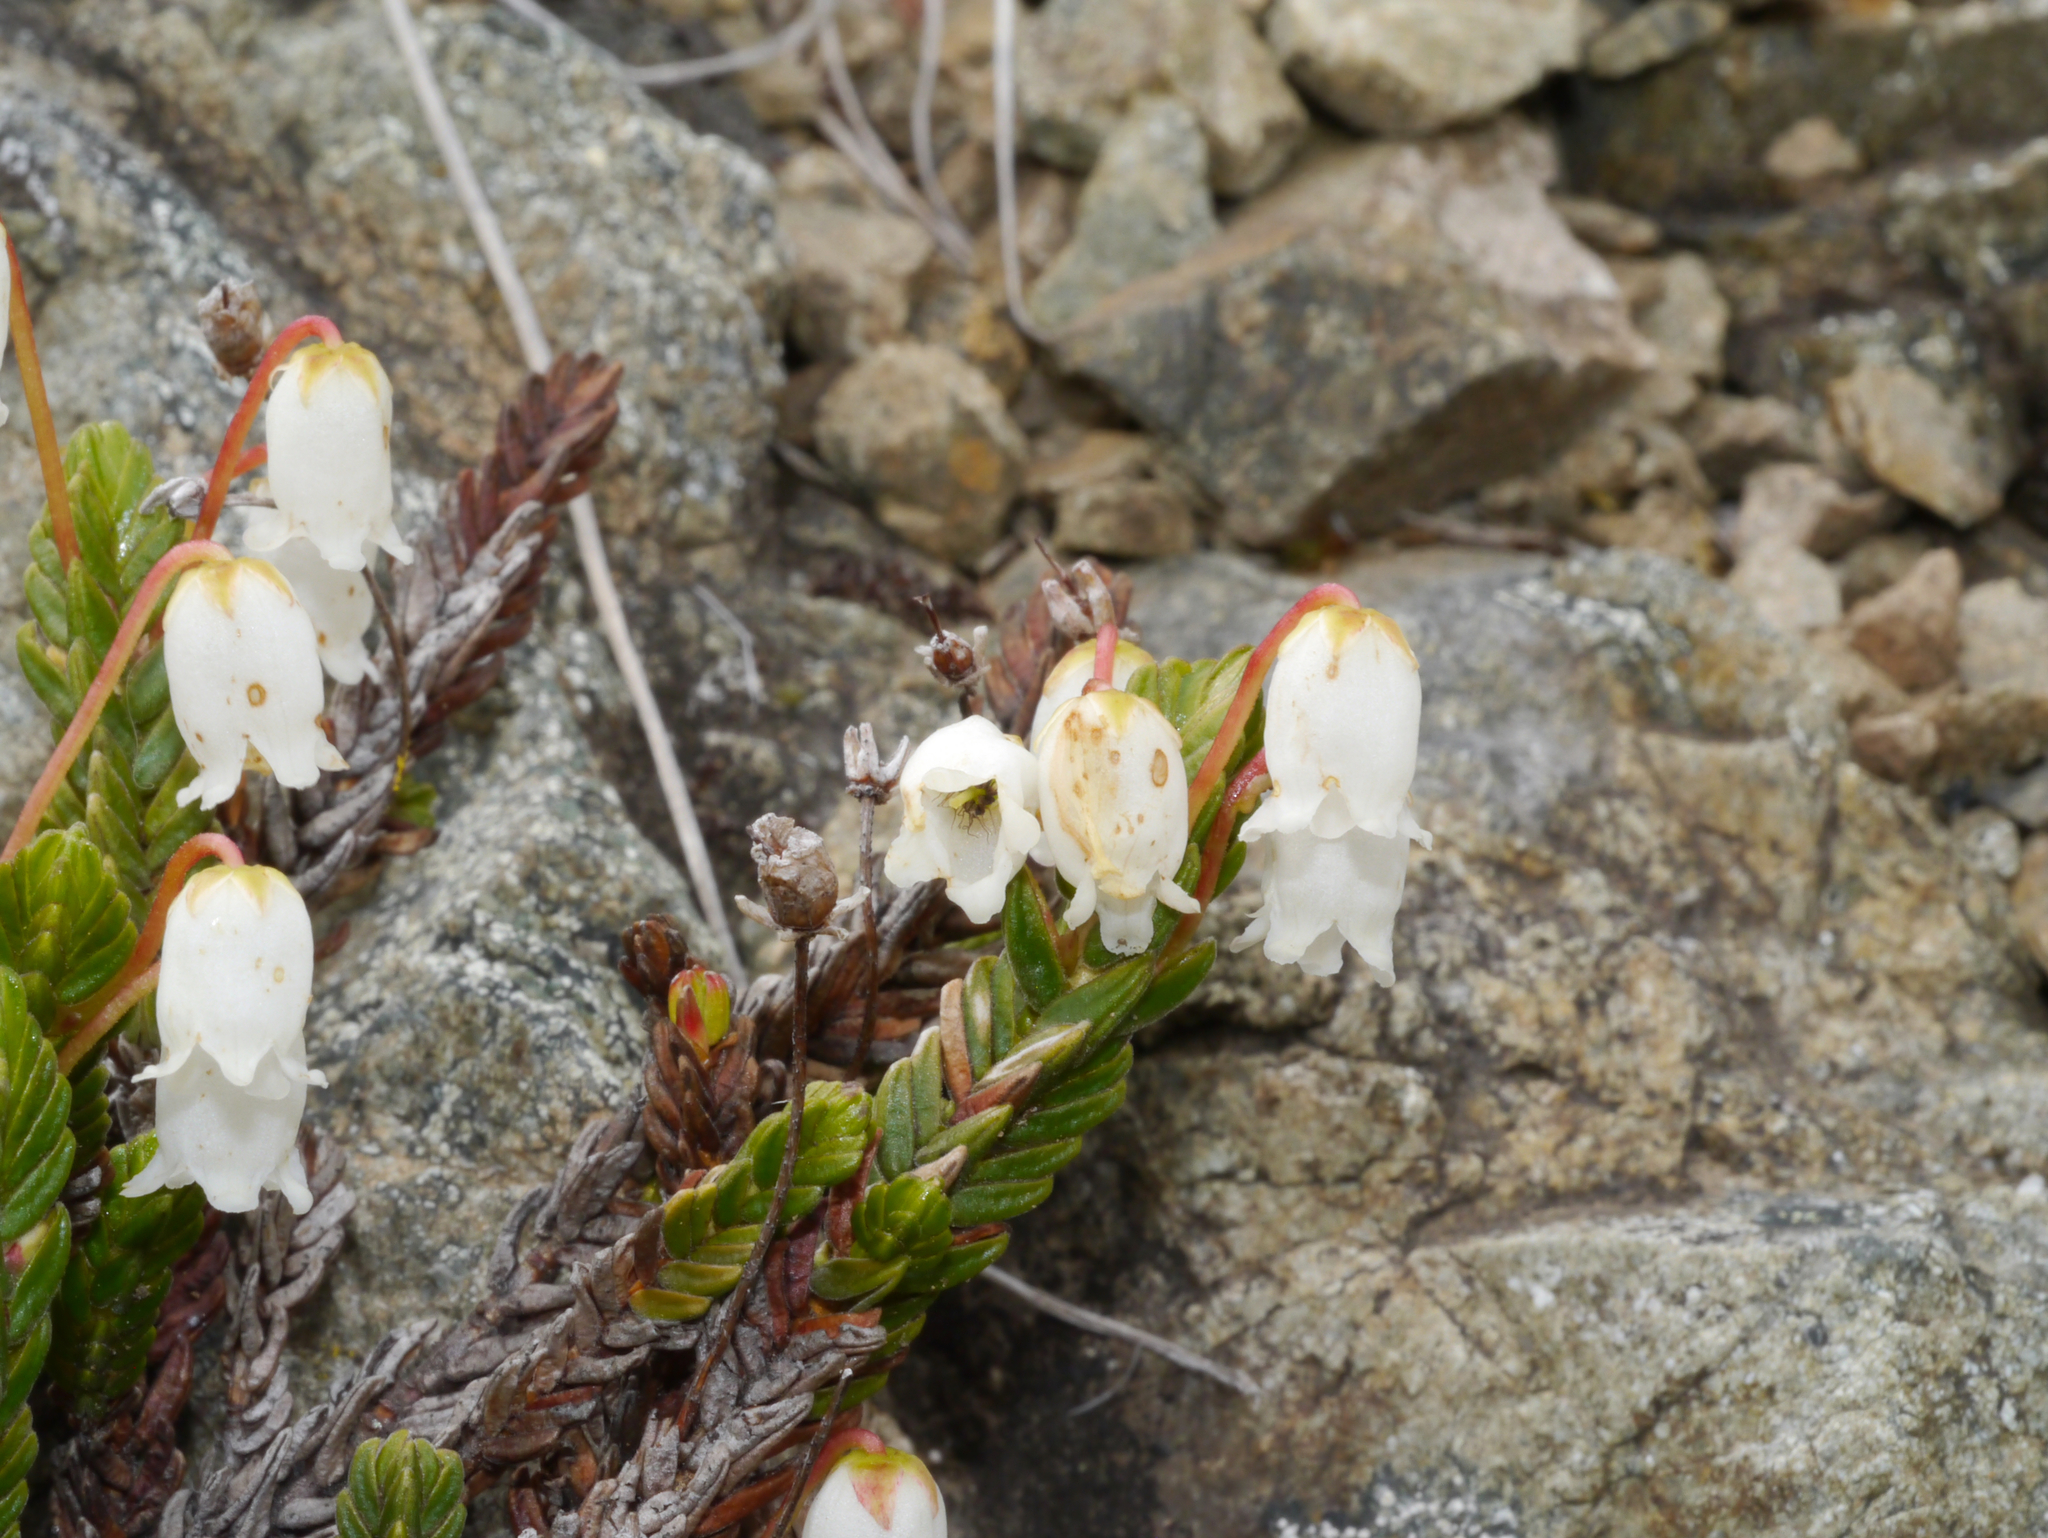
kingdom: Plantae
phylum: Tracheophyta
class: Magnoliopsida
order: Ericales
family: Ericaceae
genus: Cassiope
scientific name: Cassiope tetragona
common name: Arctic bell heather
